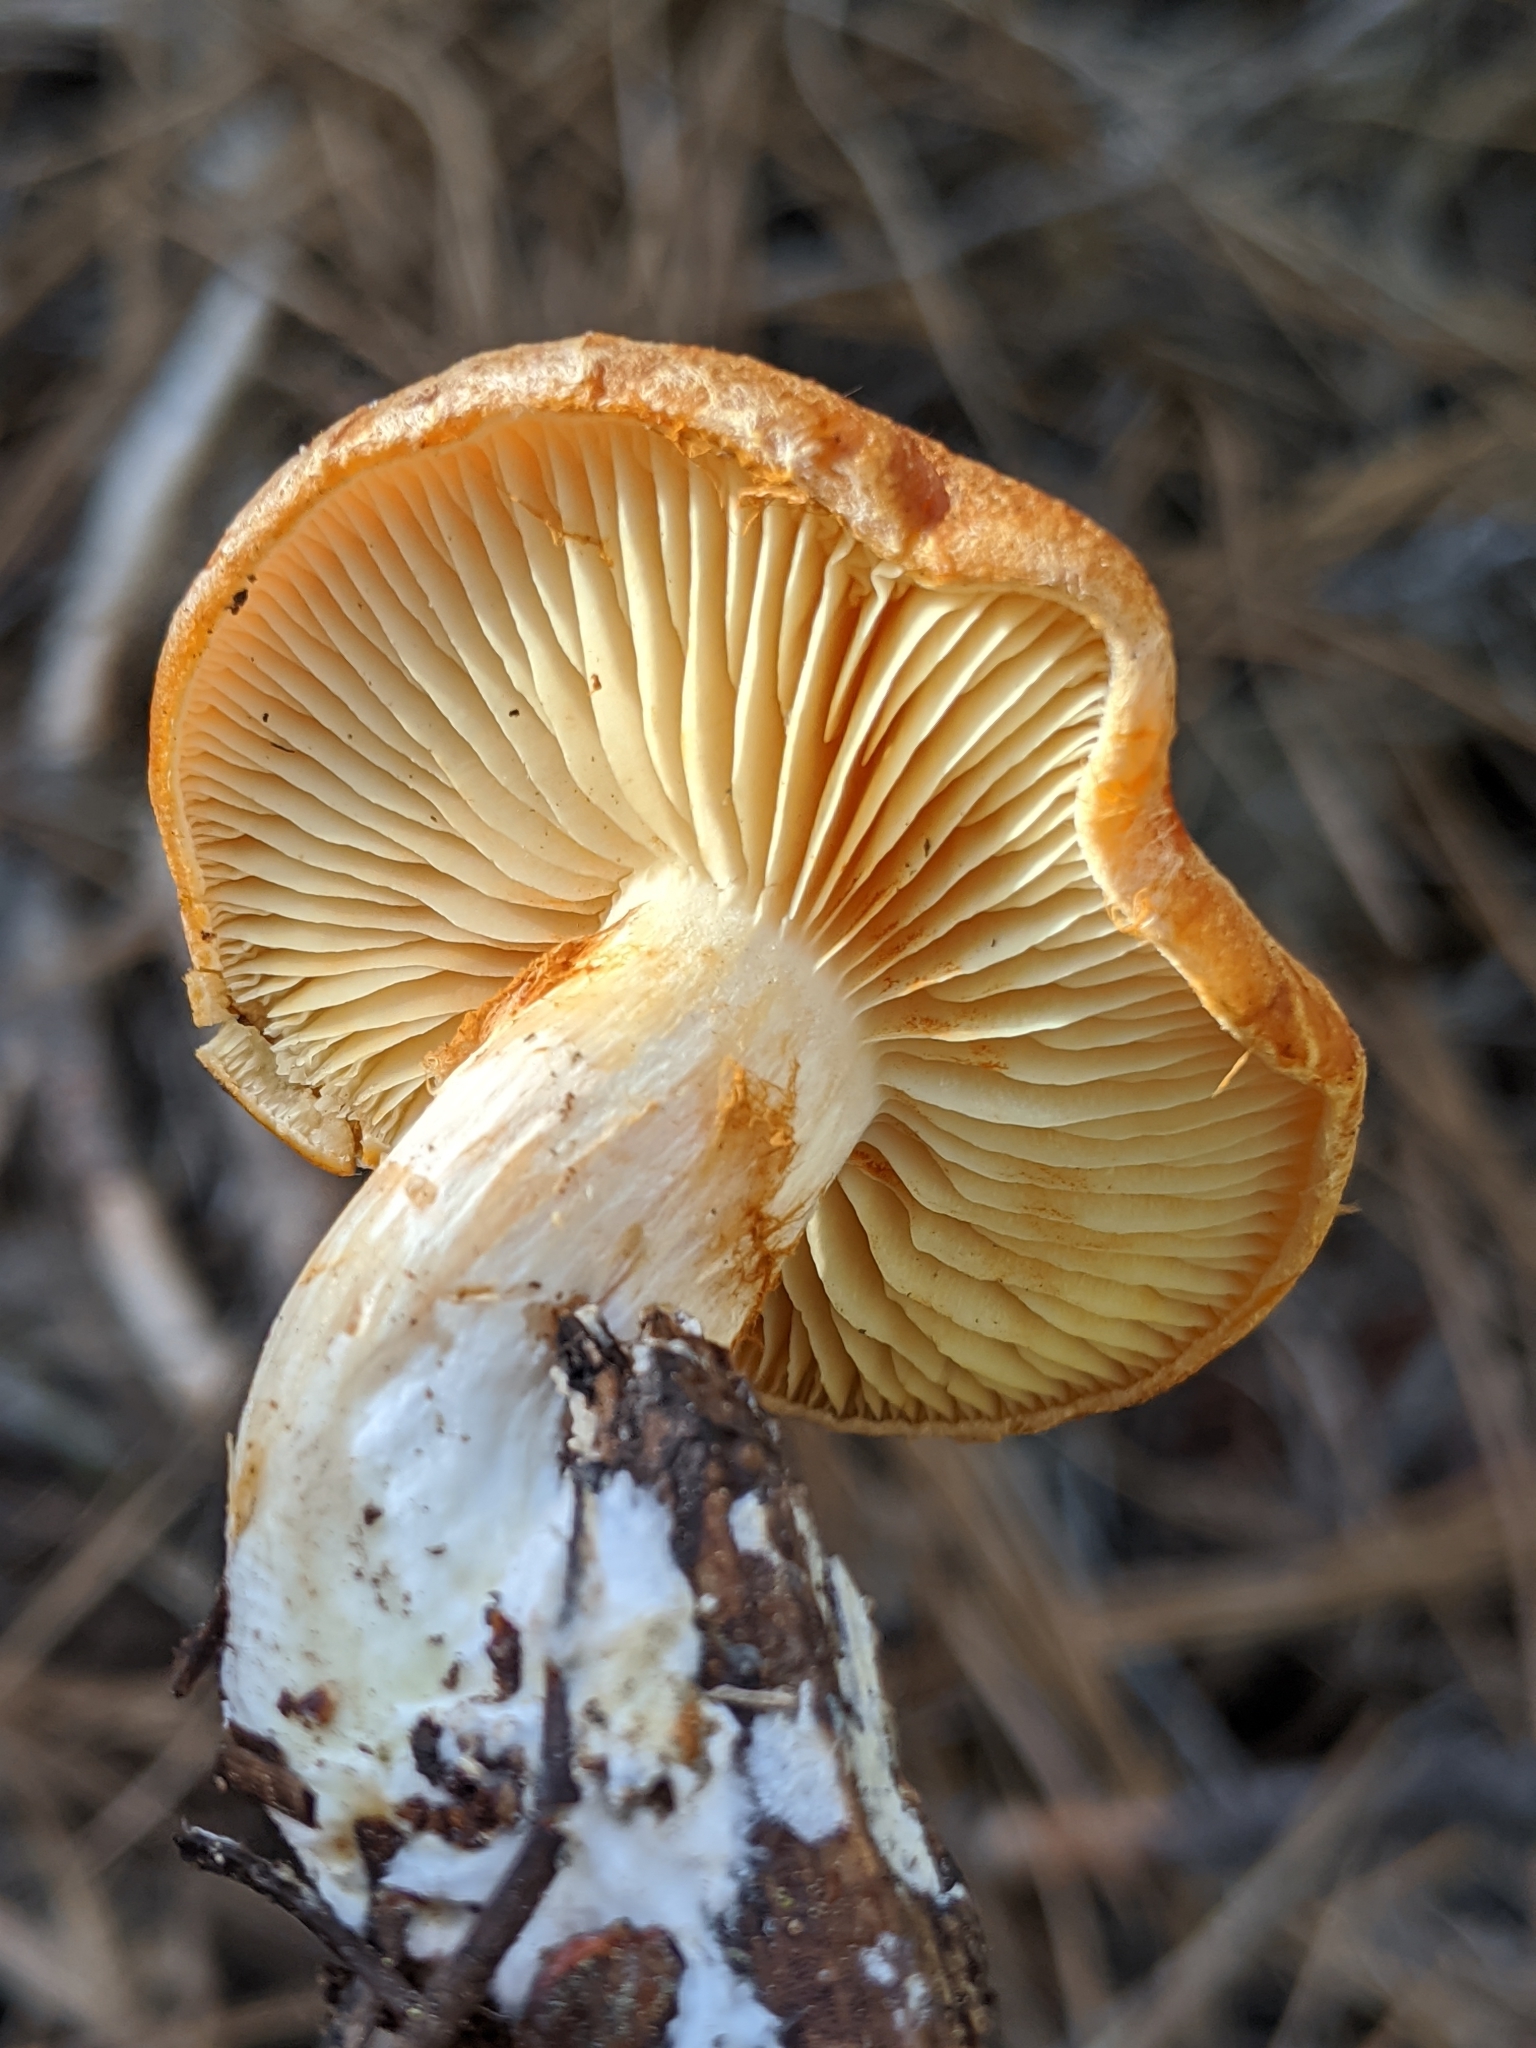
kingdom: Fungi
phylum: Basidiomycota
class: Agaricomycetes
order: Agaricales
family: Hymenogastraceae
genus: Gymnopilus
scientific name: Gymnopilus sapineus
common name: Scaly rustgill
